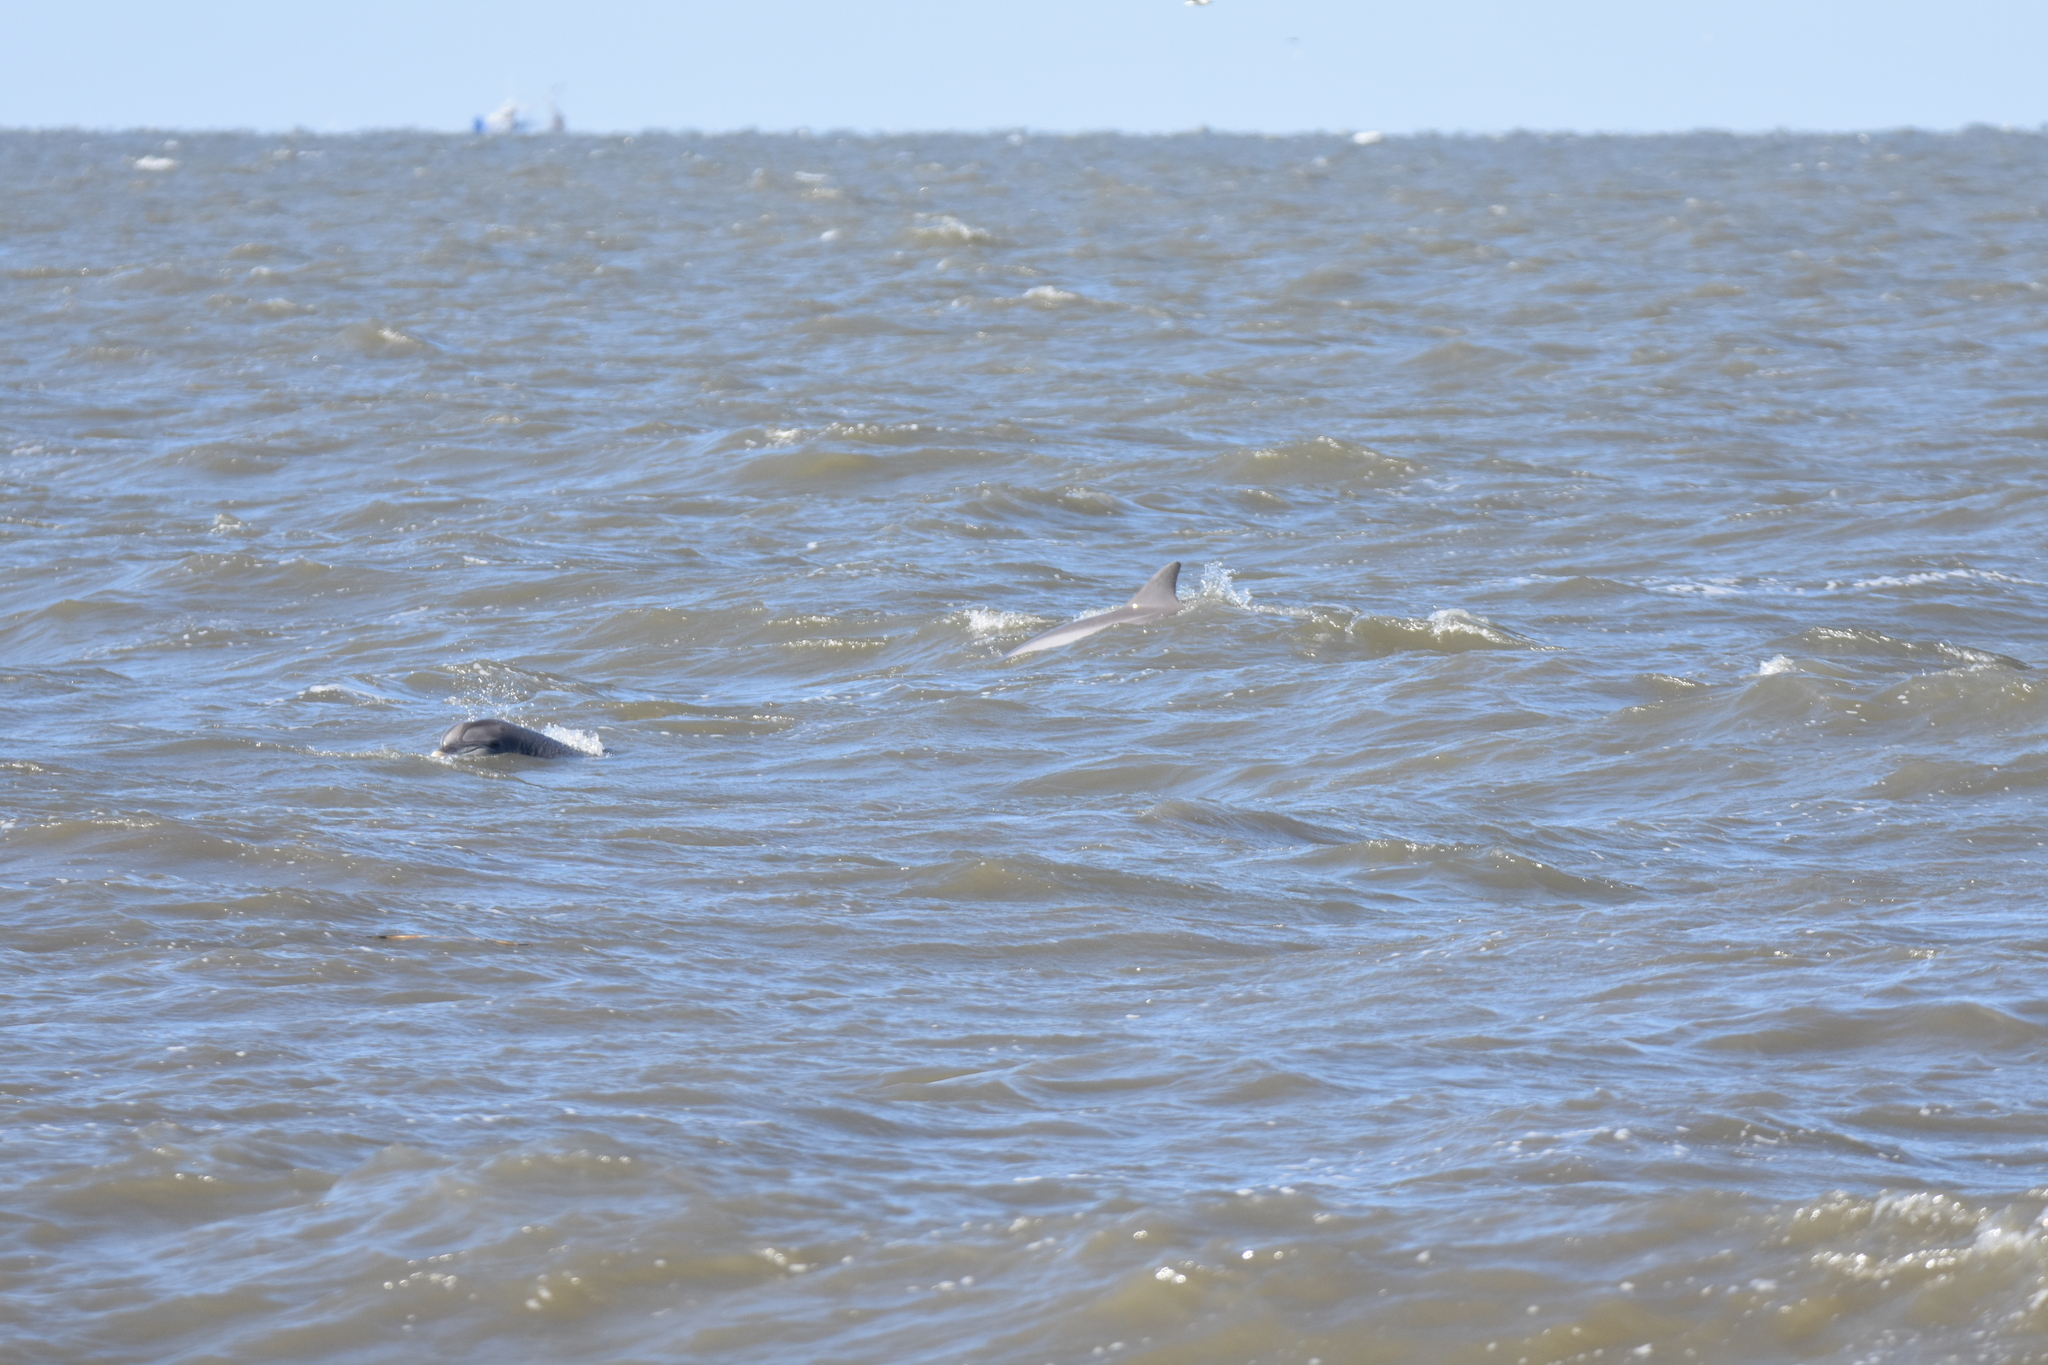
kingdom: Animalia
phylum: Chordata
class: Mammalia
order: Cetacea
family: Delphinidae
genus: Tursiops
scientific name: Tursiops truncatus
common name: Bottlenose dolphin
